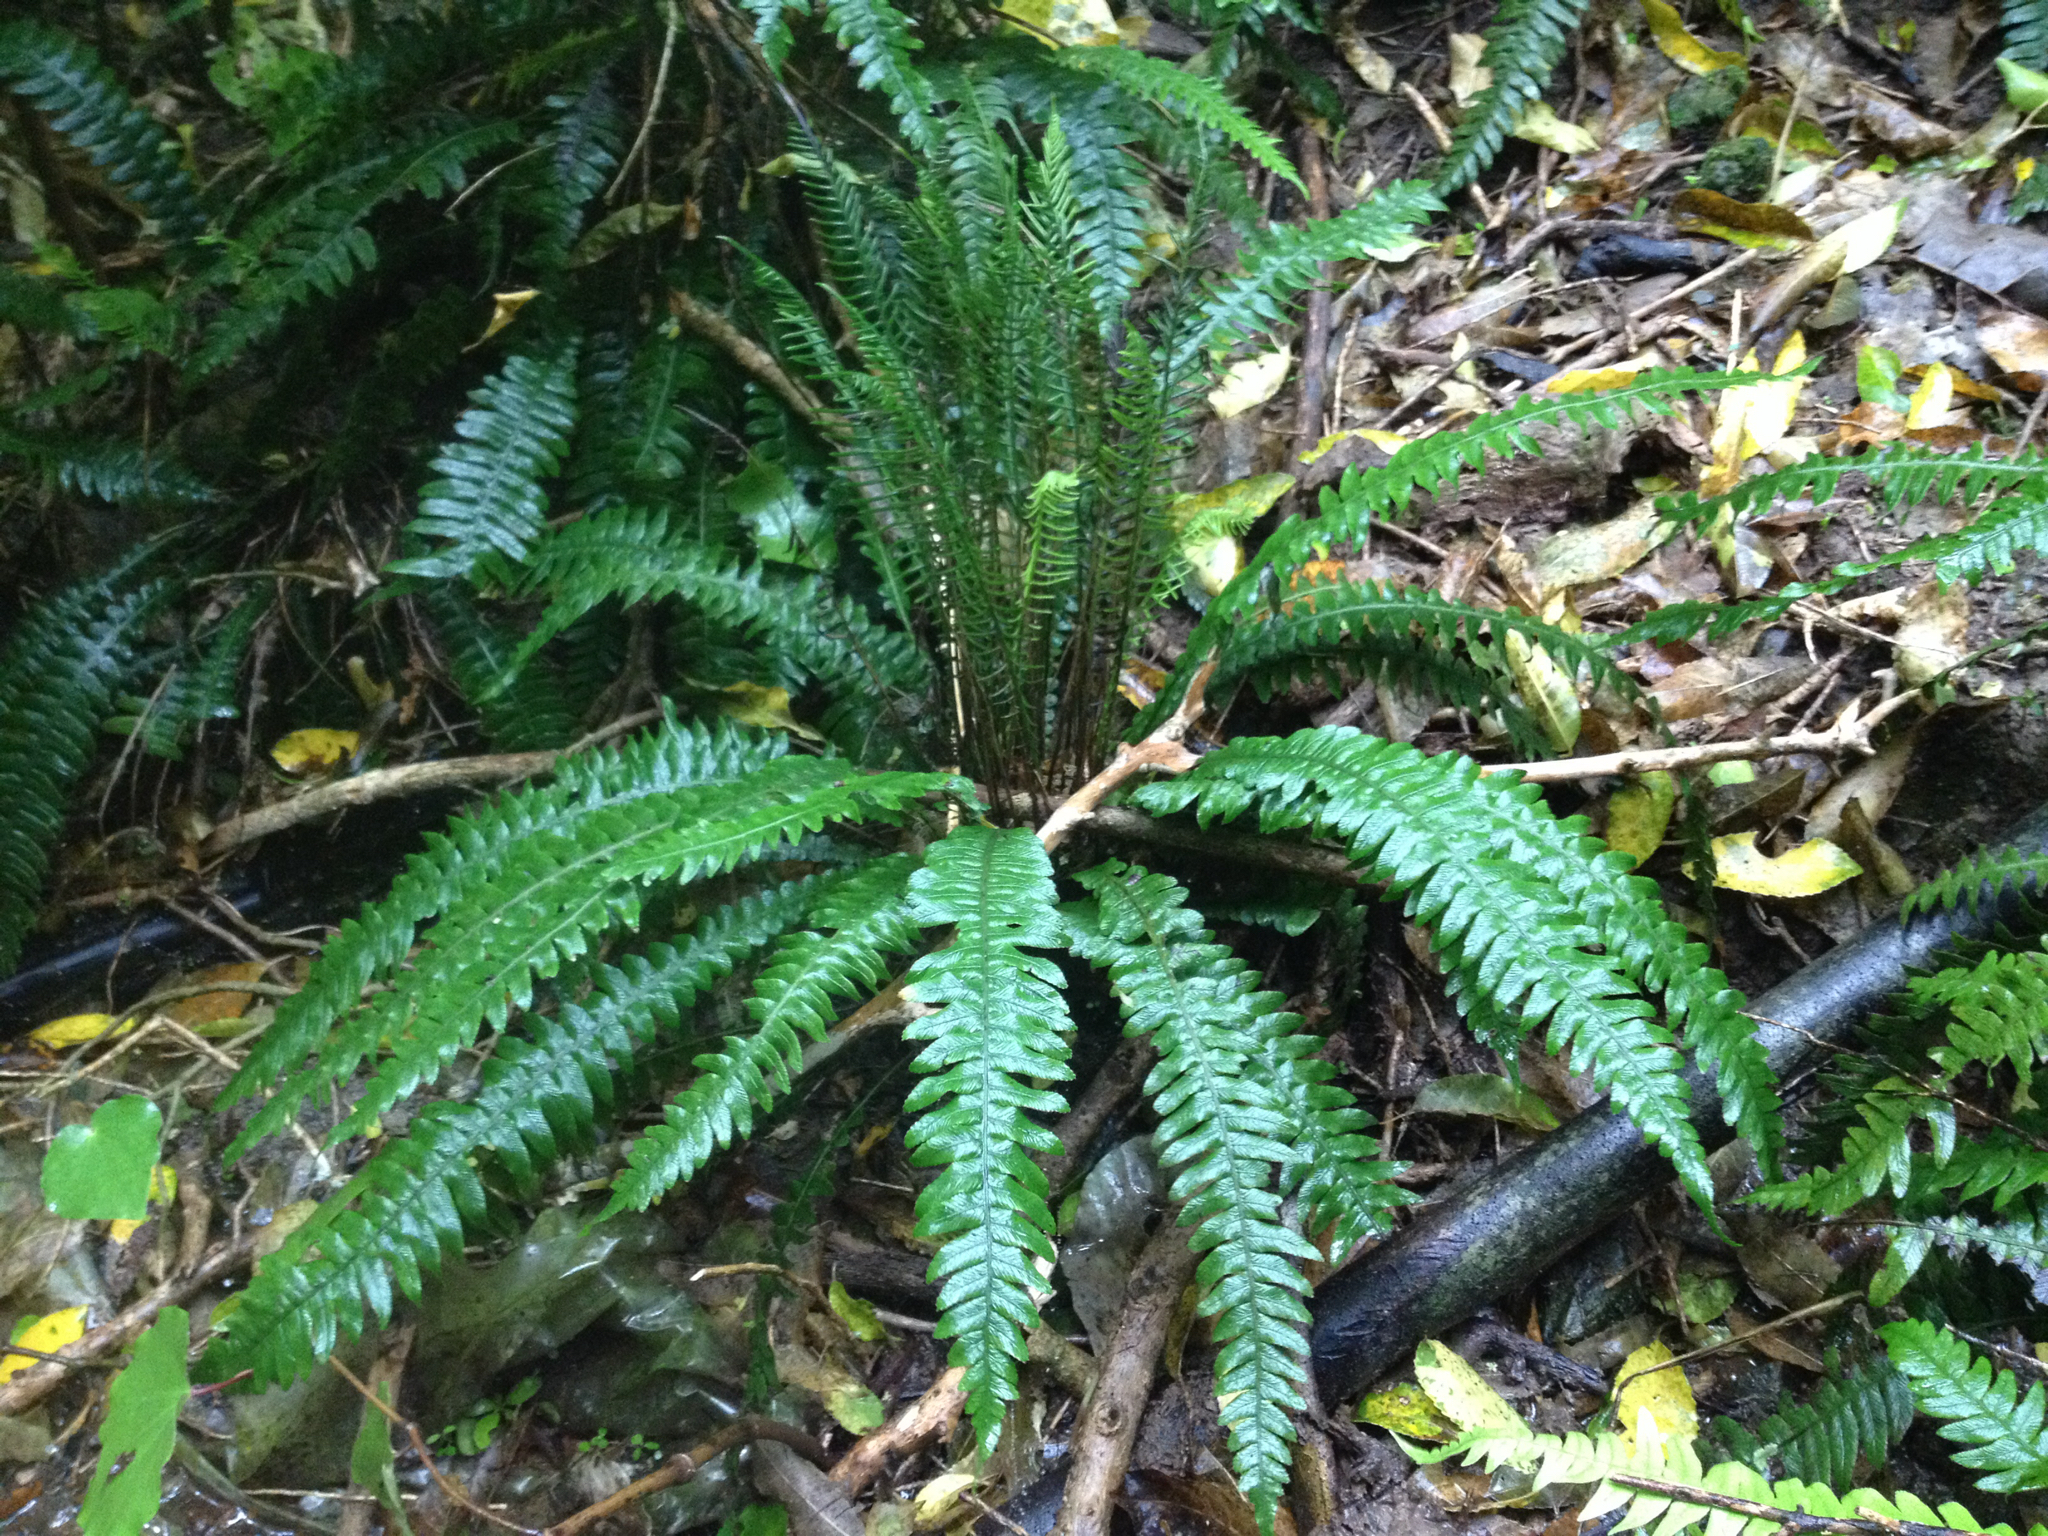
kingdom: Plantae
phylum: Tracheophyta
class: Polypodiopsida
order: Polypodiales
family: Blechnaceae
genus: Austroblechnum
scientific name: Austroblechnum lanceolatum
